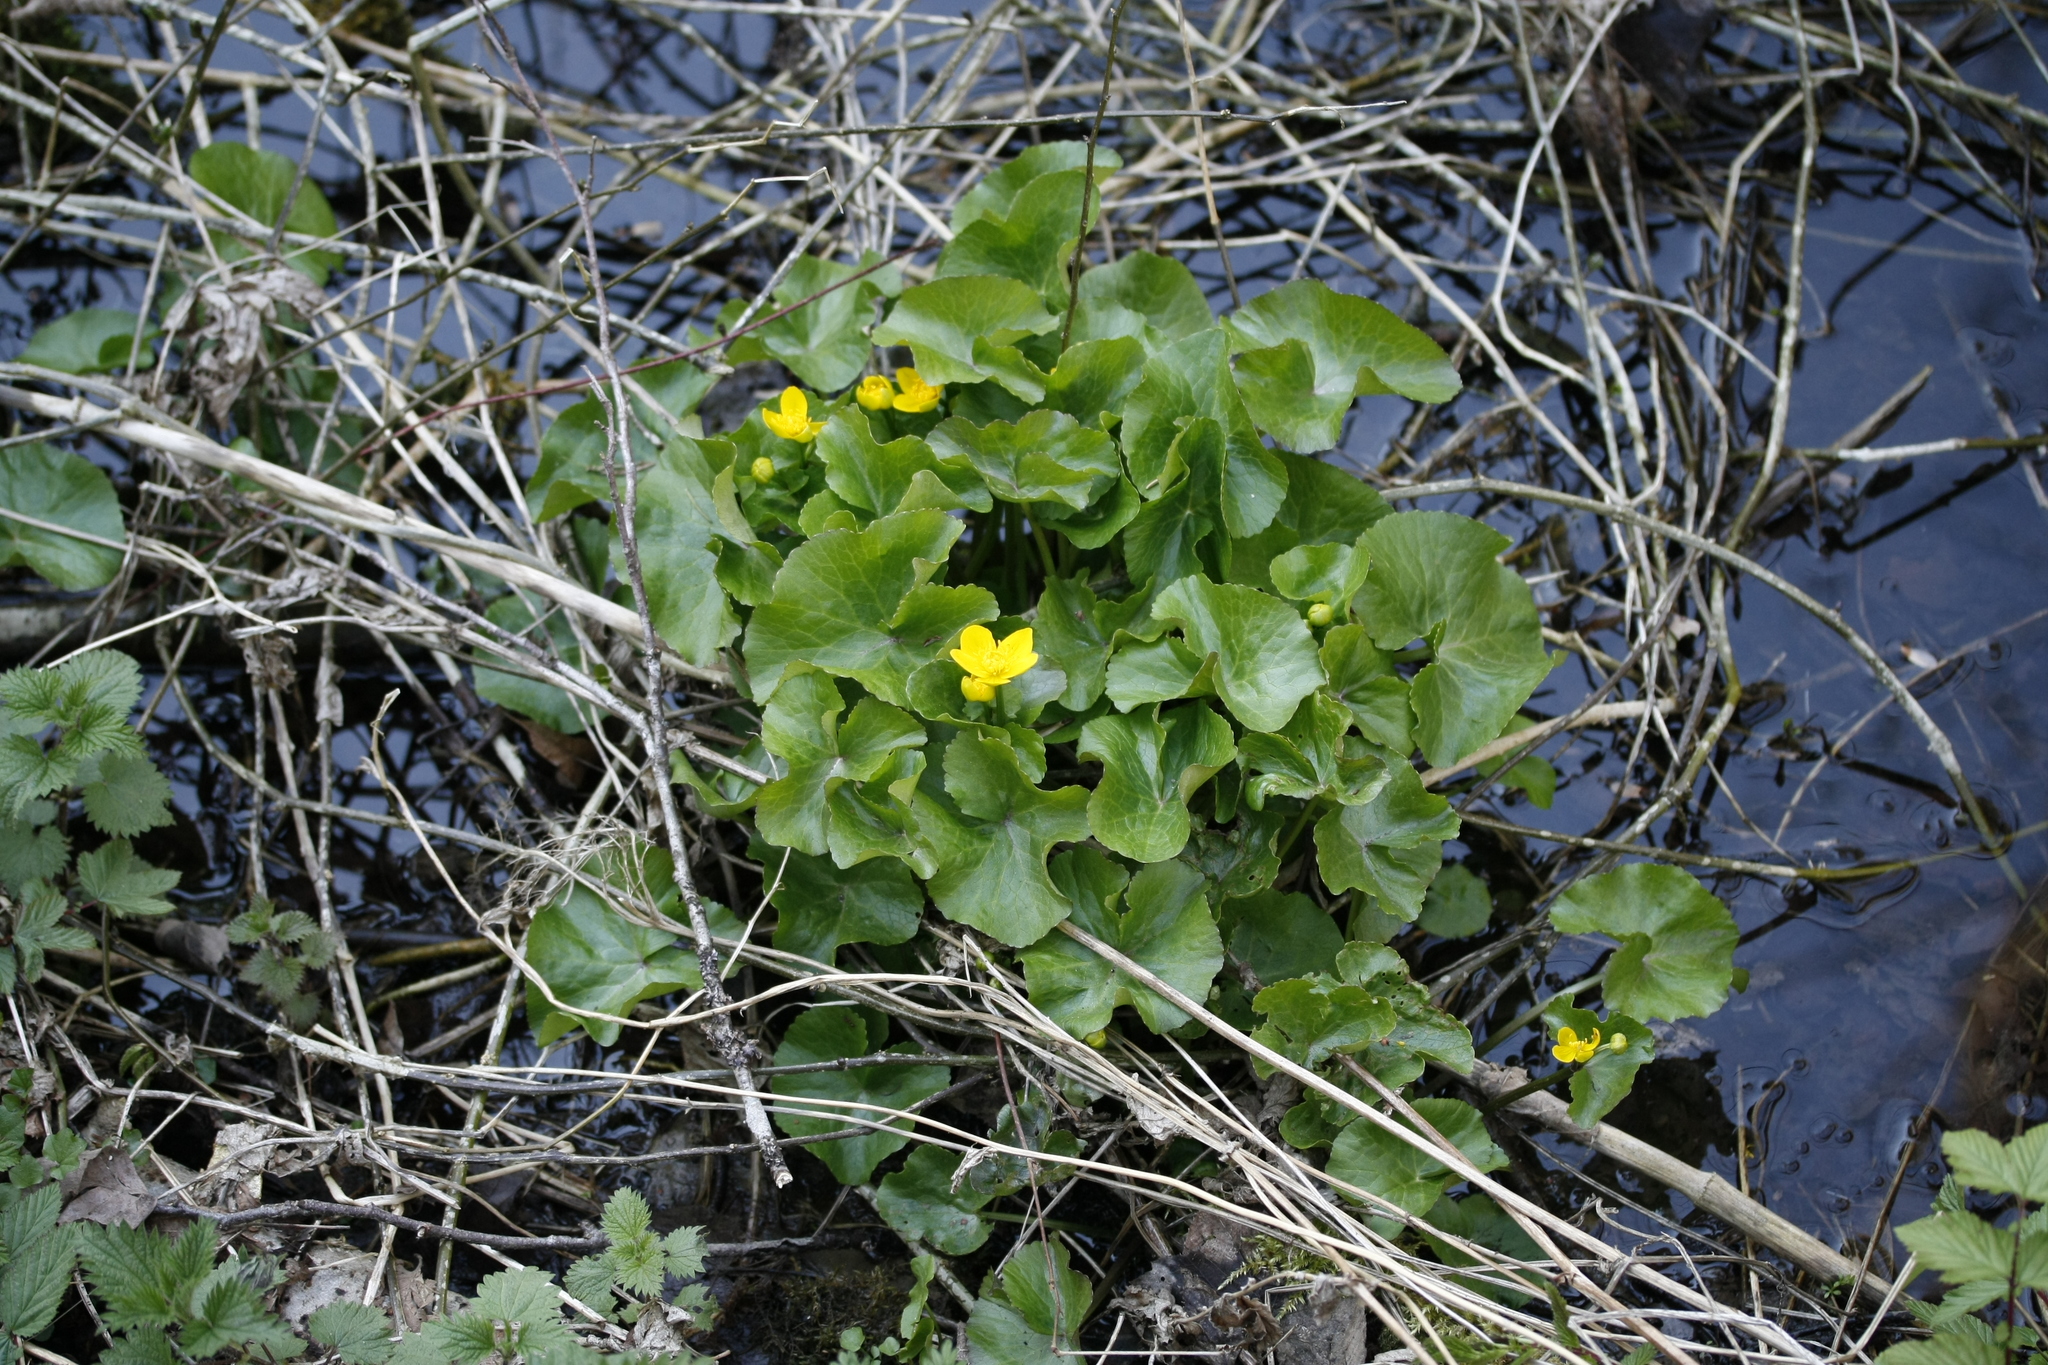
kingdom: Plantae
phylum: Tracheophyta
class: Magnoliopsida
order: Ranunculales
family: Ranunculaceae
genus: Caltha
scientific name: Caltha palustris
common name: Marsh marigold
